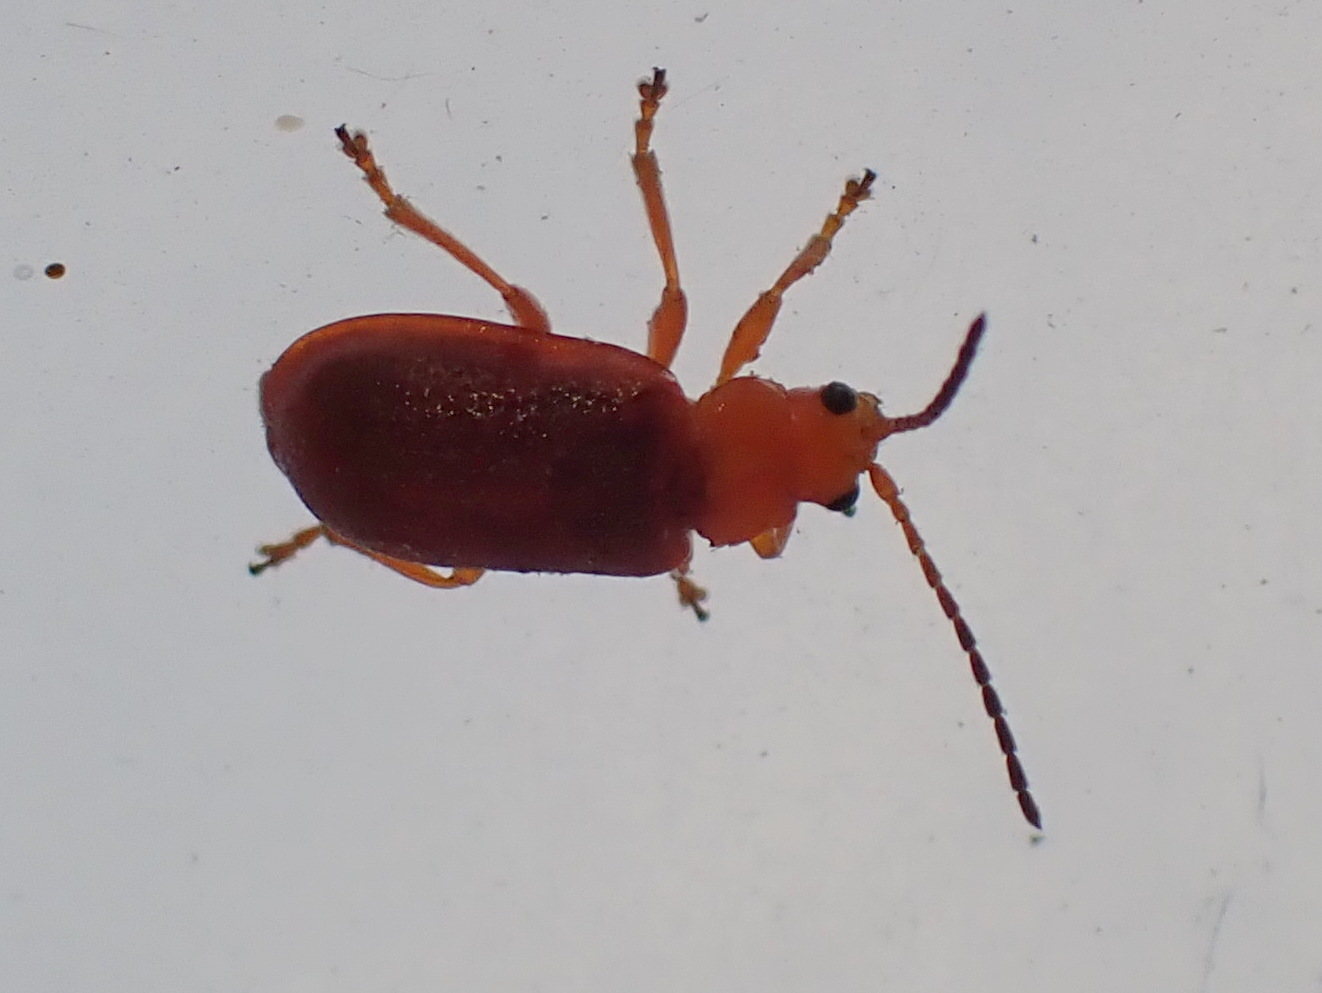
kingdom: Animalia
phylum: Arthropoda
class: Insecta
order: Coleoptera
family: Chrysomelidae
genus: Tricholochmaea
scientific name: Tricholochmaea kalmiae
